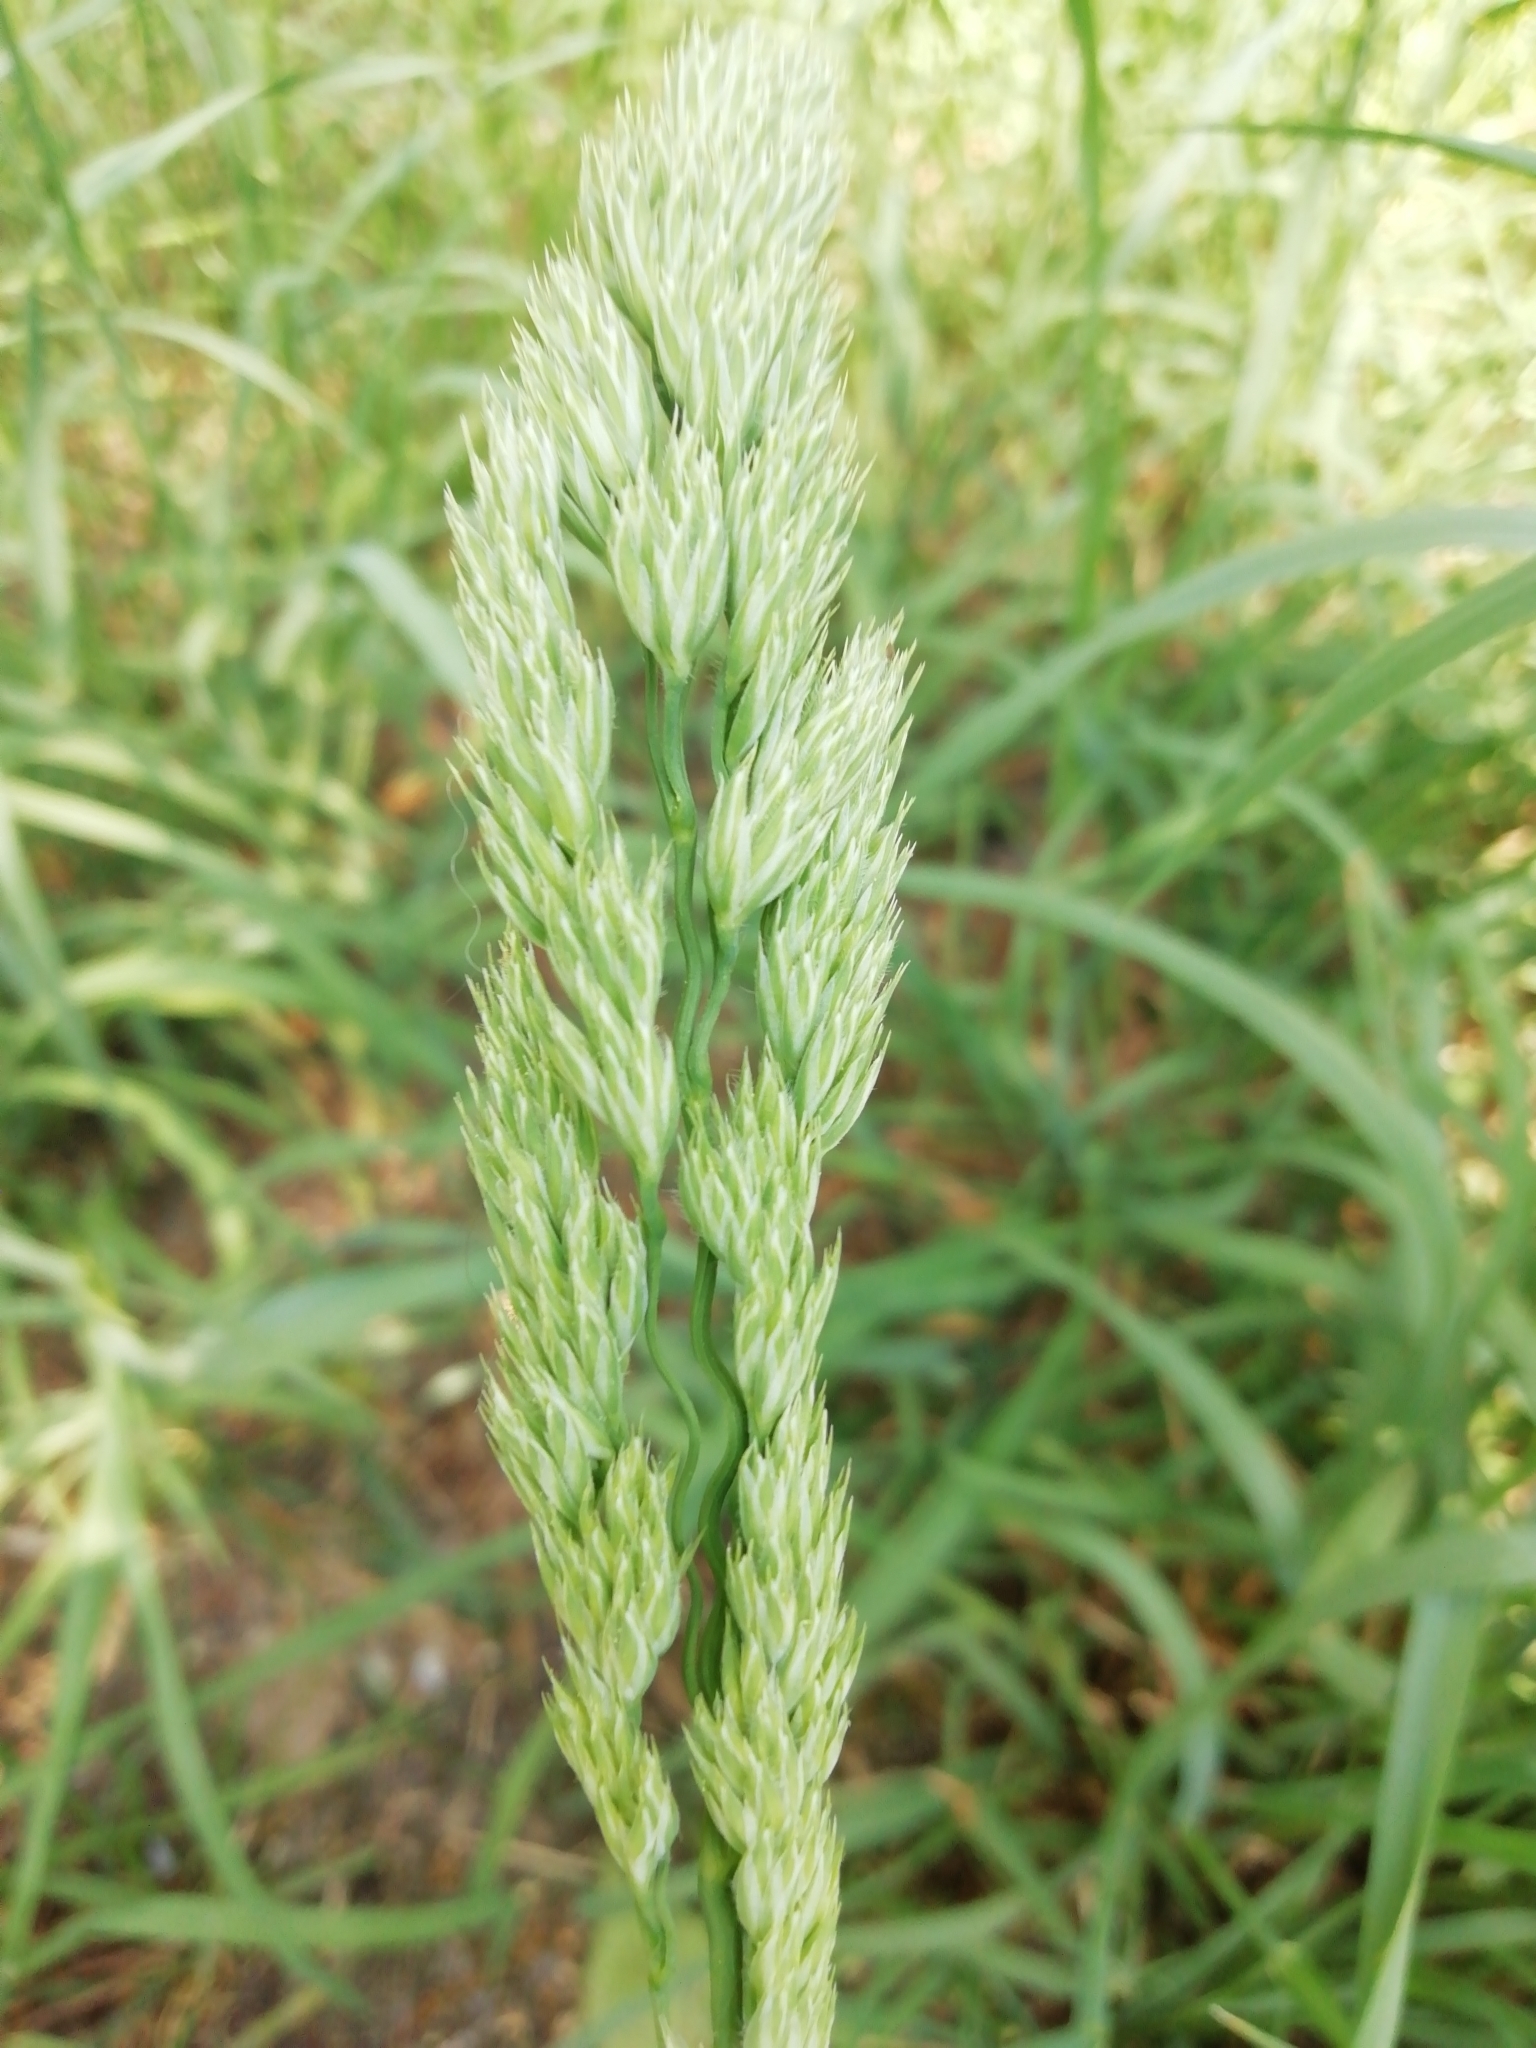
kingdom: Plantae
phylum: Tracheophyta
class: Liliopsida
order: Poales
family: Poaceae
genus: Dactylis
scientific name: Dactylis glomerata
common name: Orchardgrass
